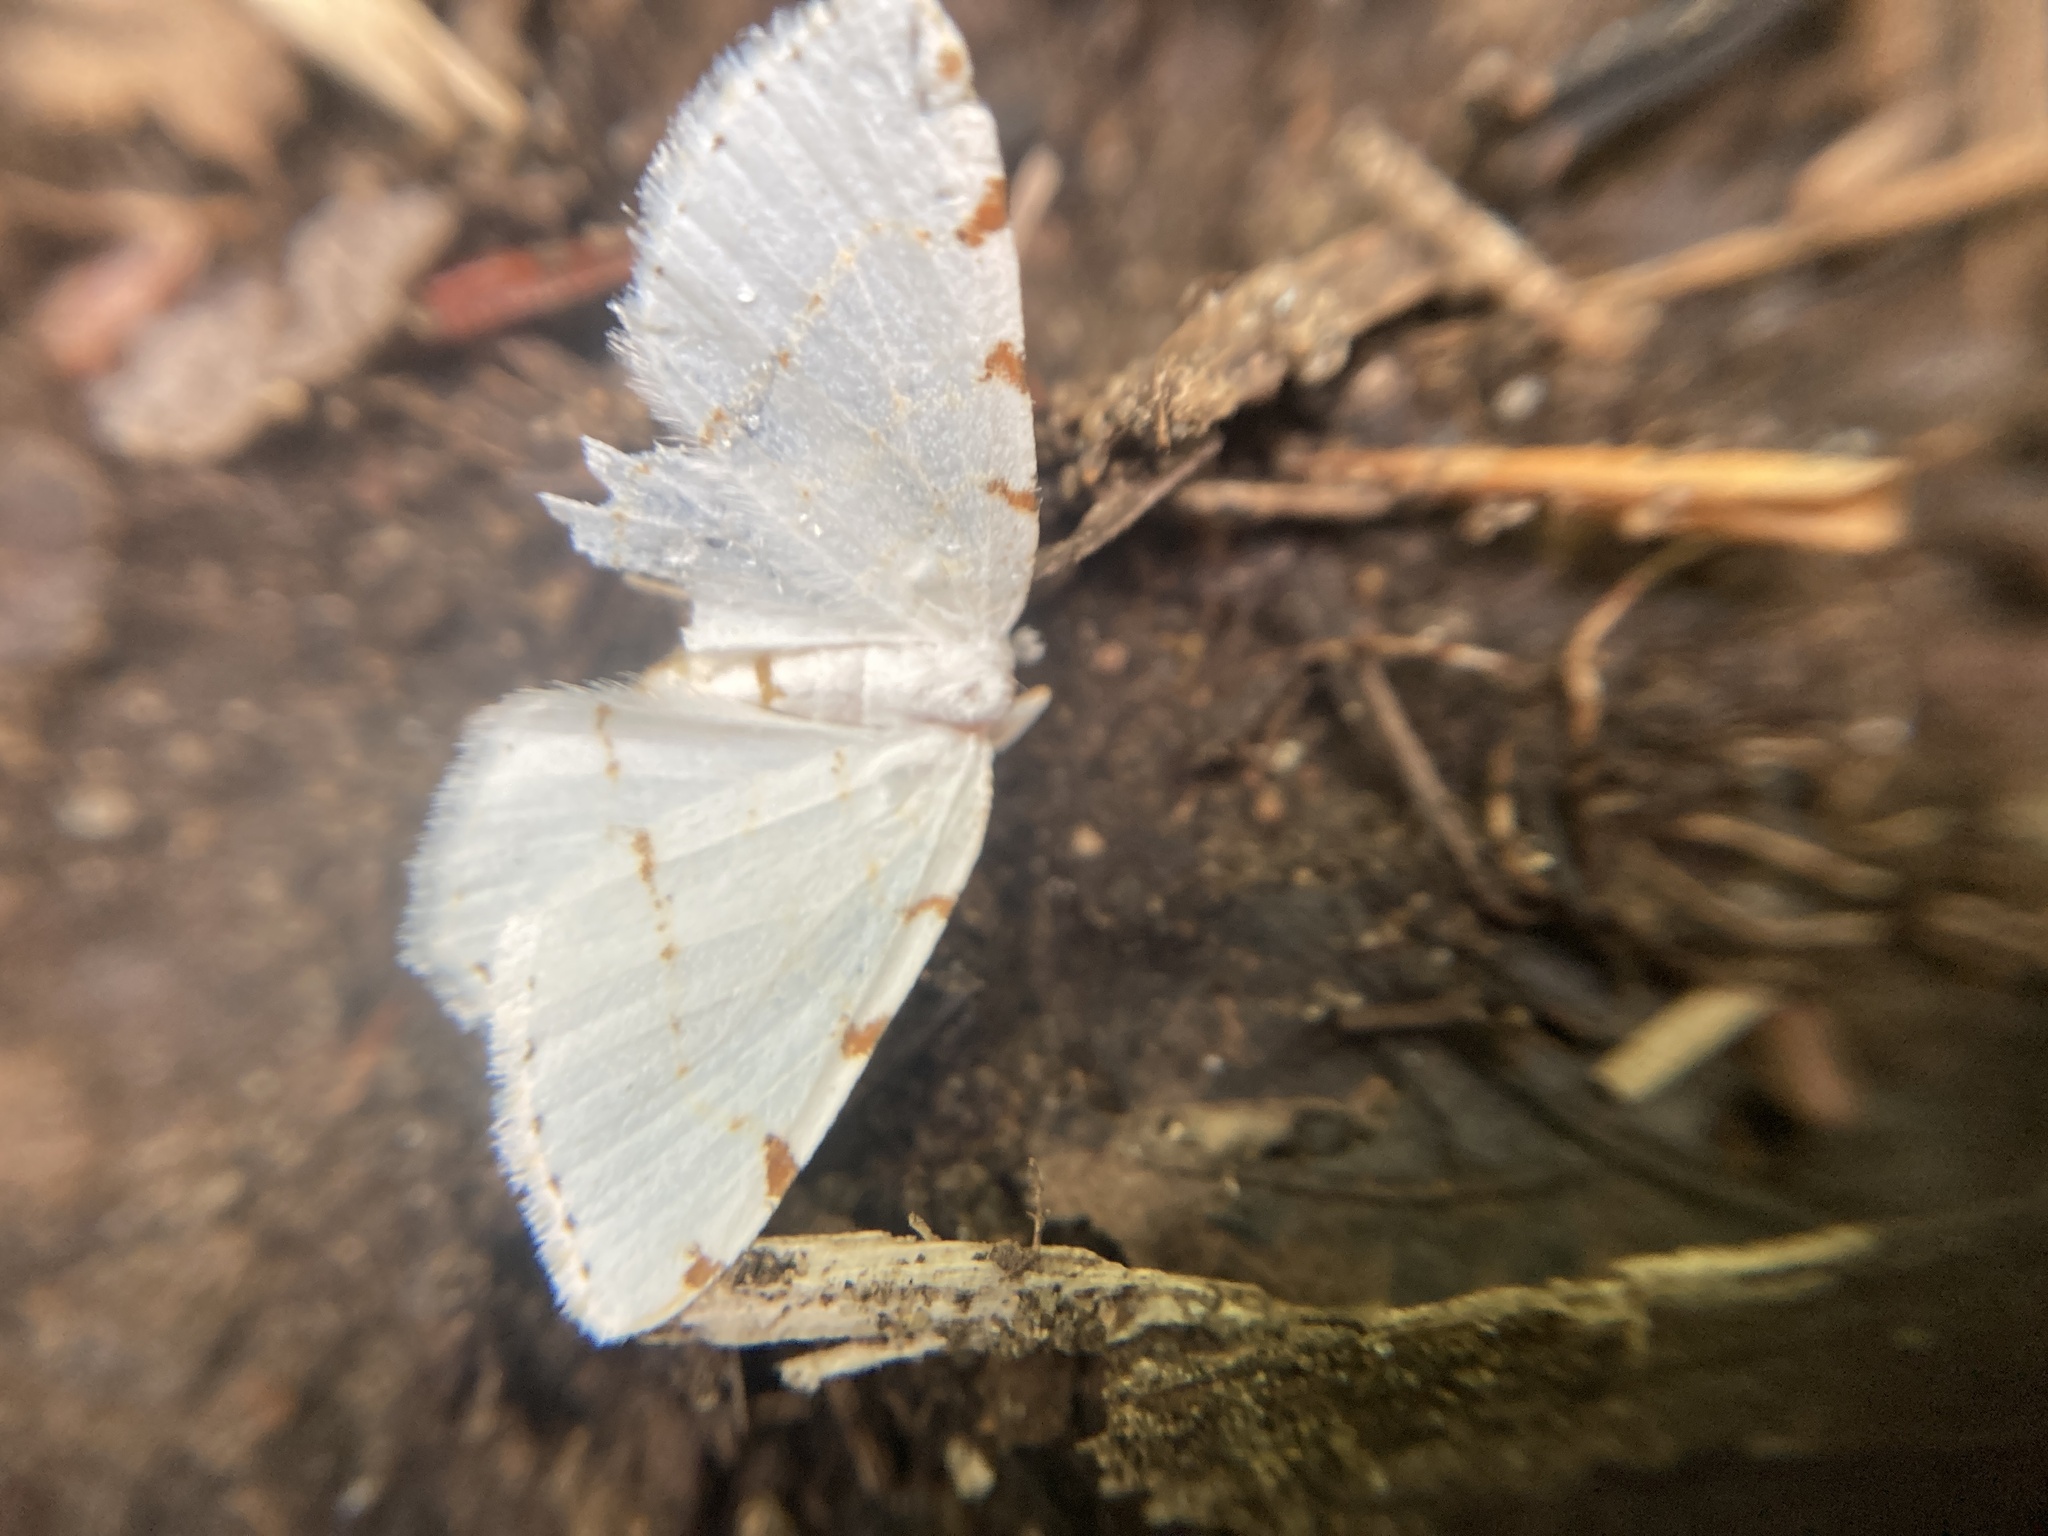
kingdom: Animalia
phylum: Arthropoda
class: Insecta
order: Lepidoptera
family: Geometridae
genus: Macaria
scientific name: Macaria pustularia
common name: Lesser maple spanworm moth
